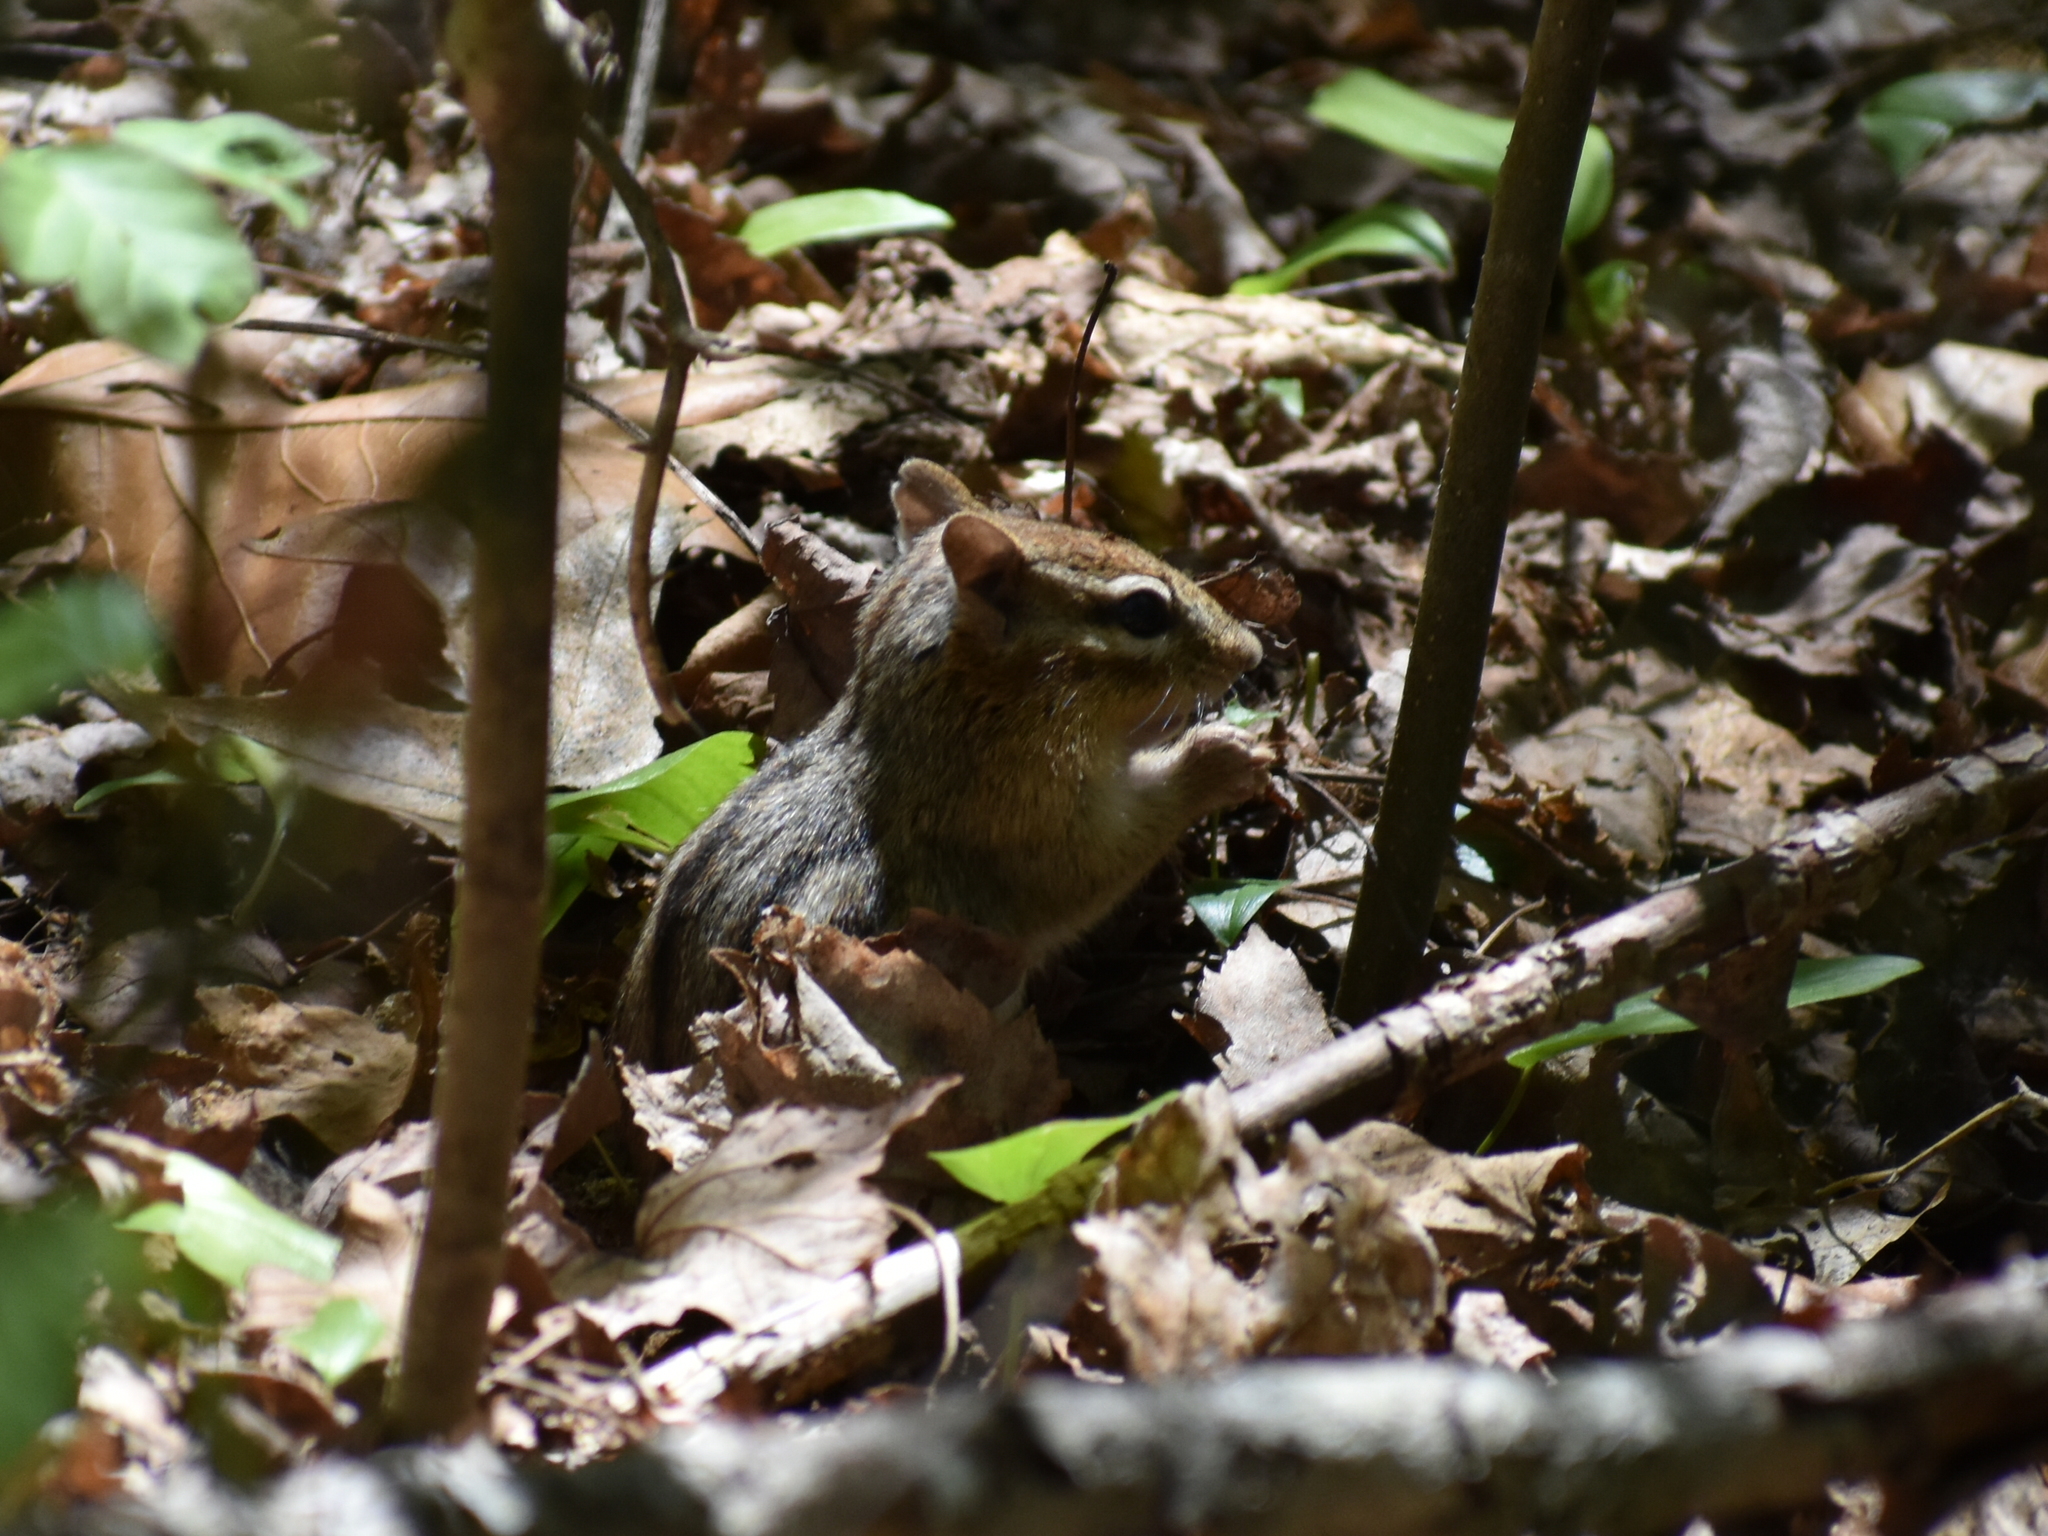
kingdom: Animalia
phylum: Chordata
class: Mammalia
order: Rodentia
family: Sciuridae
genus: Tamias
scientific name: Tamias striatus
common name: Eastern chipmunk
